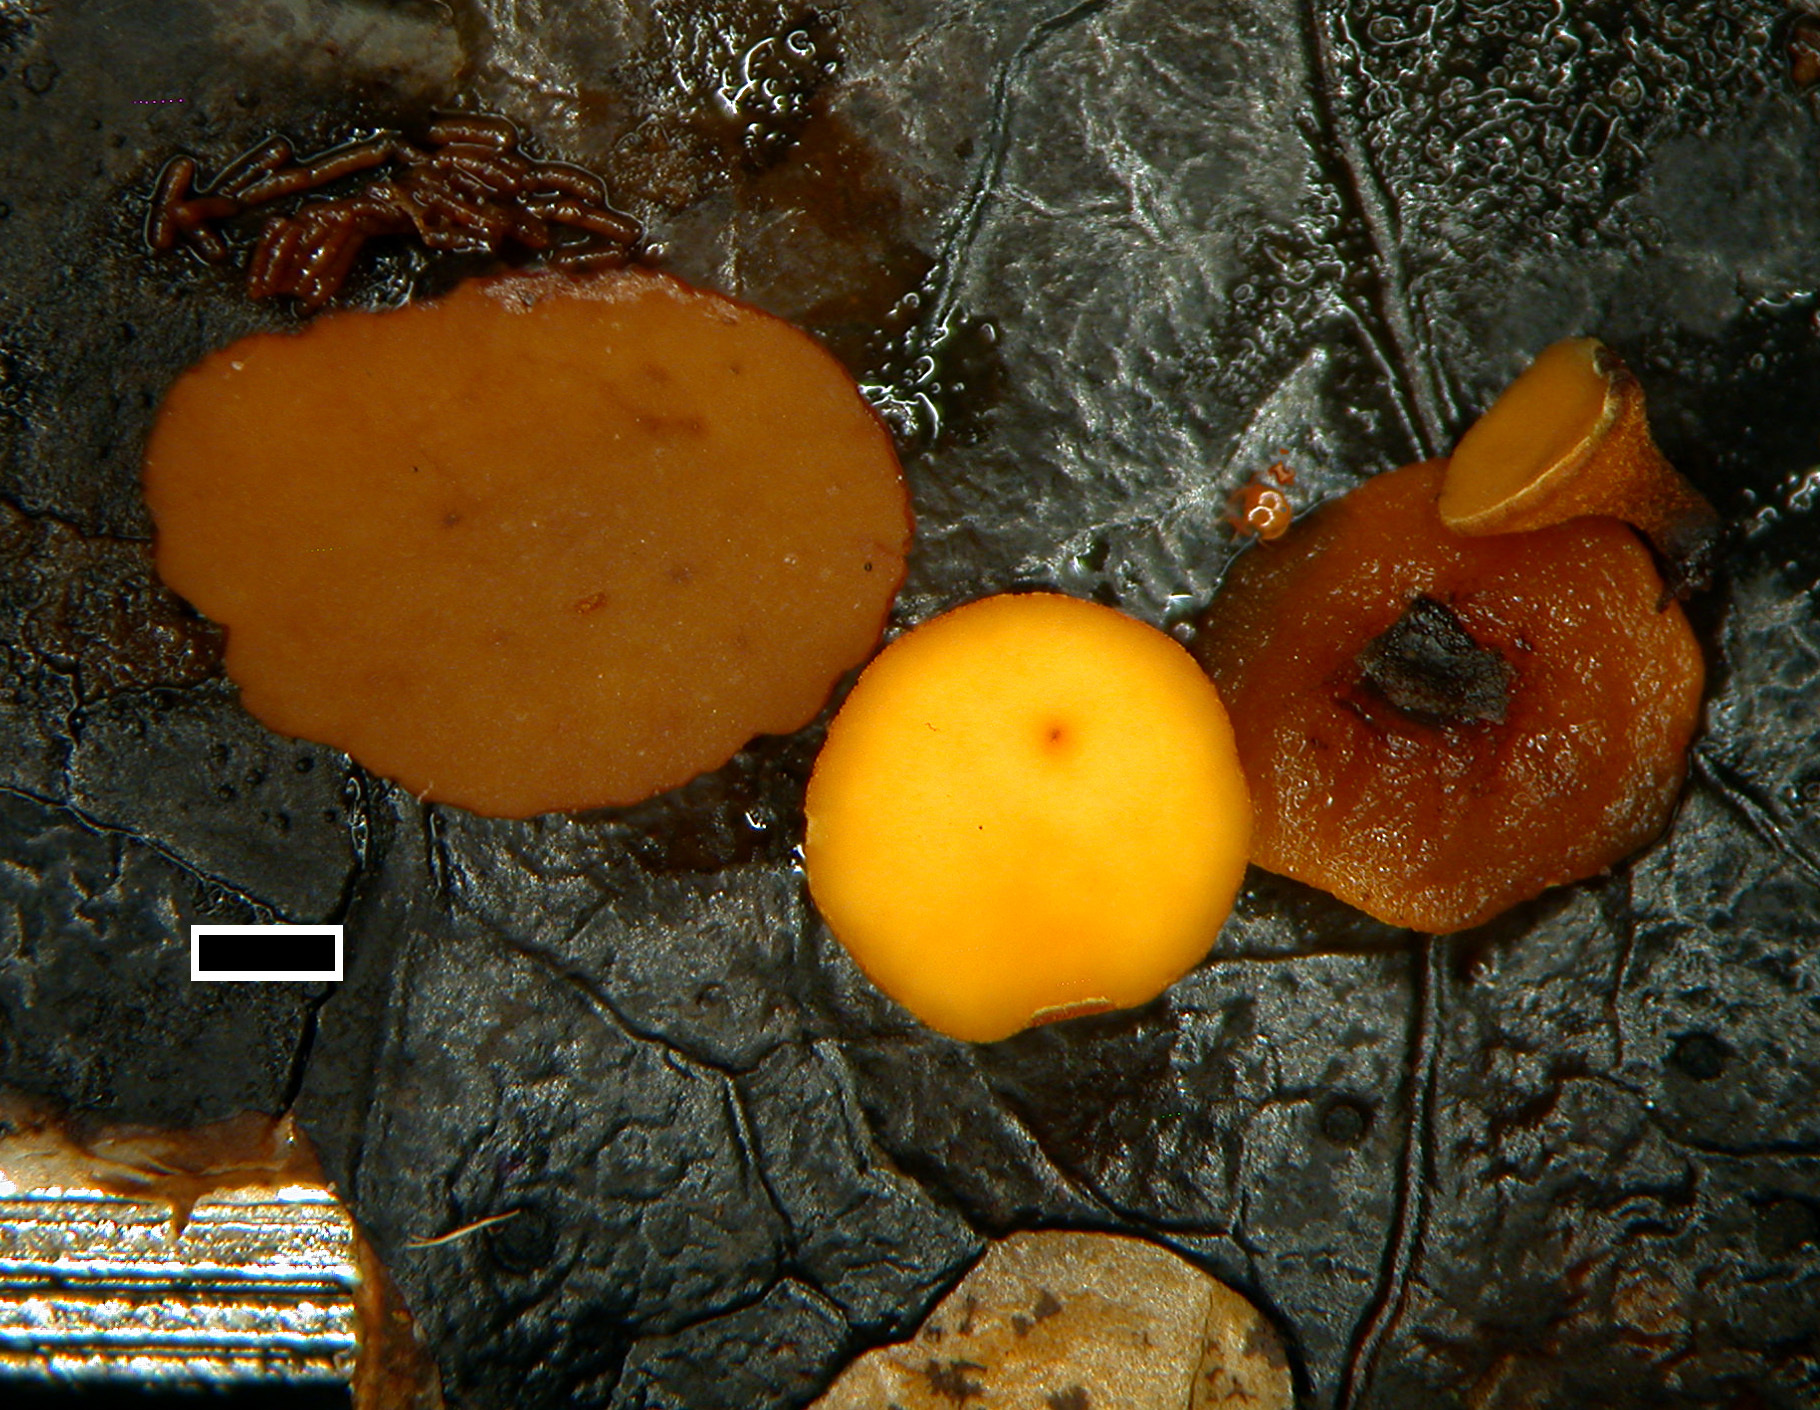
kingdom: Fungi
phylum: Ascomycota
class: Leotiomycetes
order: Helotiales
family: Rutstroemiaceae
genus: Lanzia
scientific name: Lanzia griseliniae
